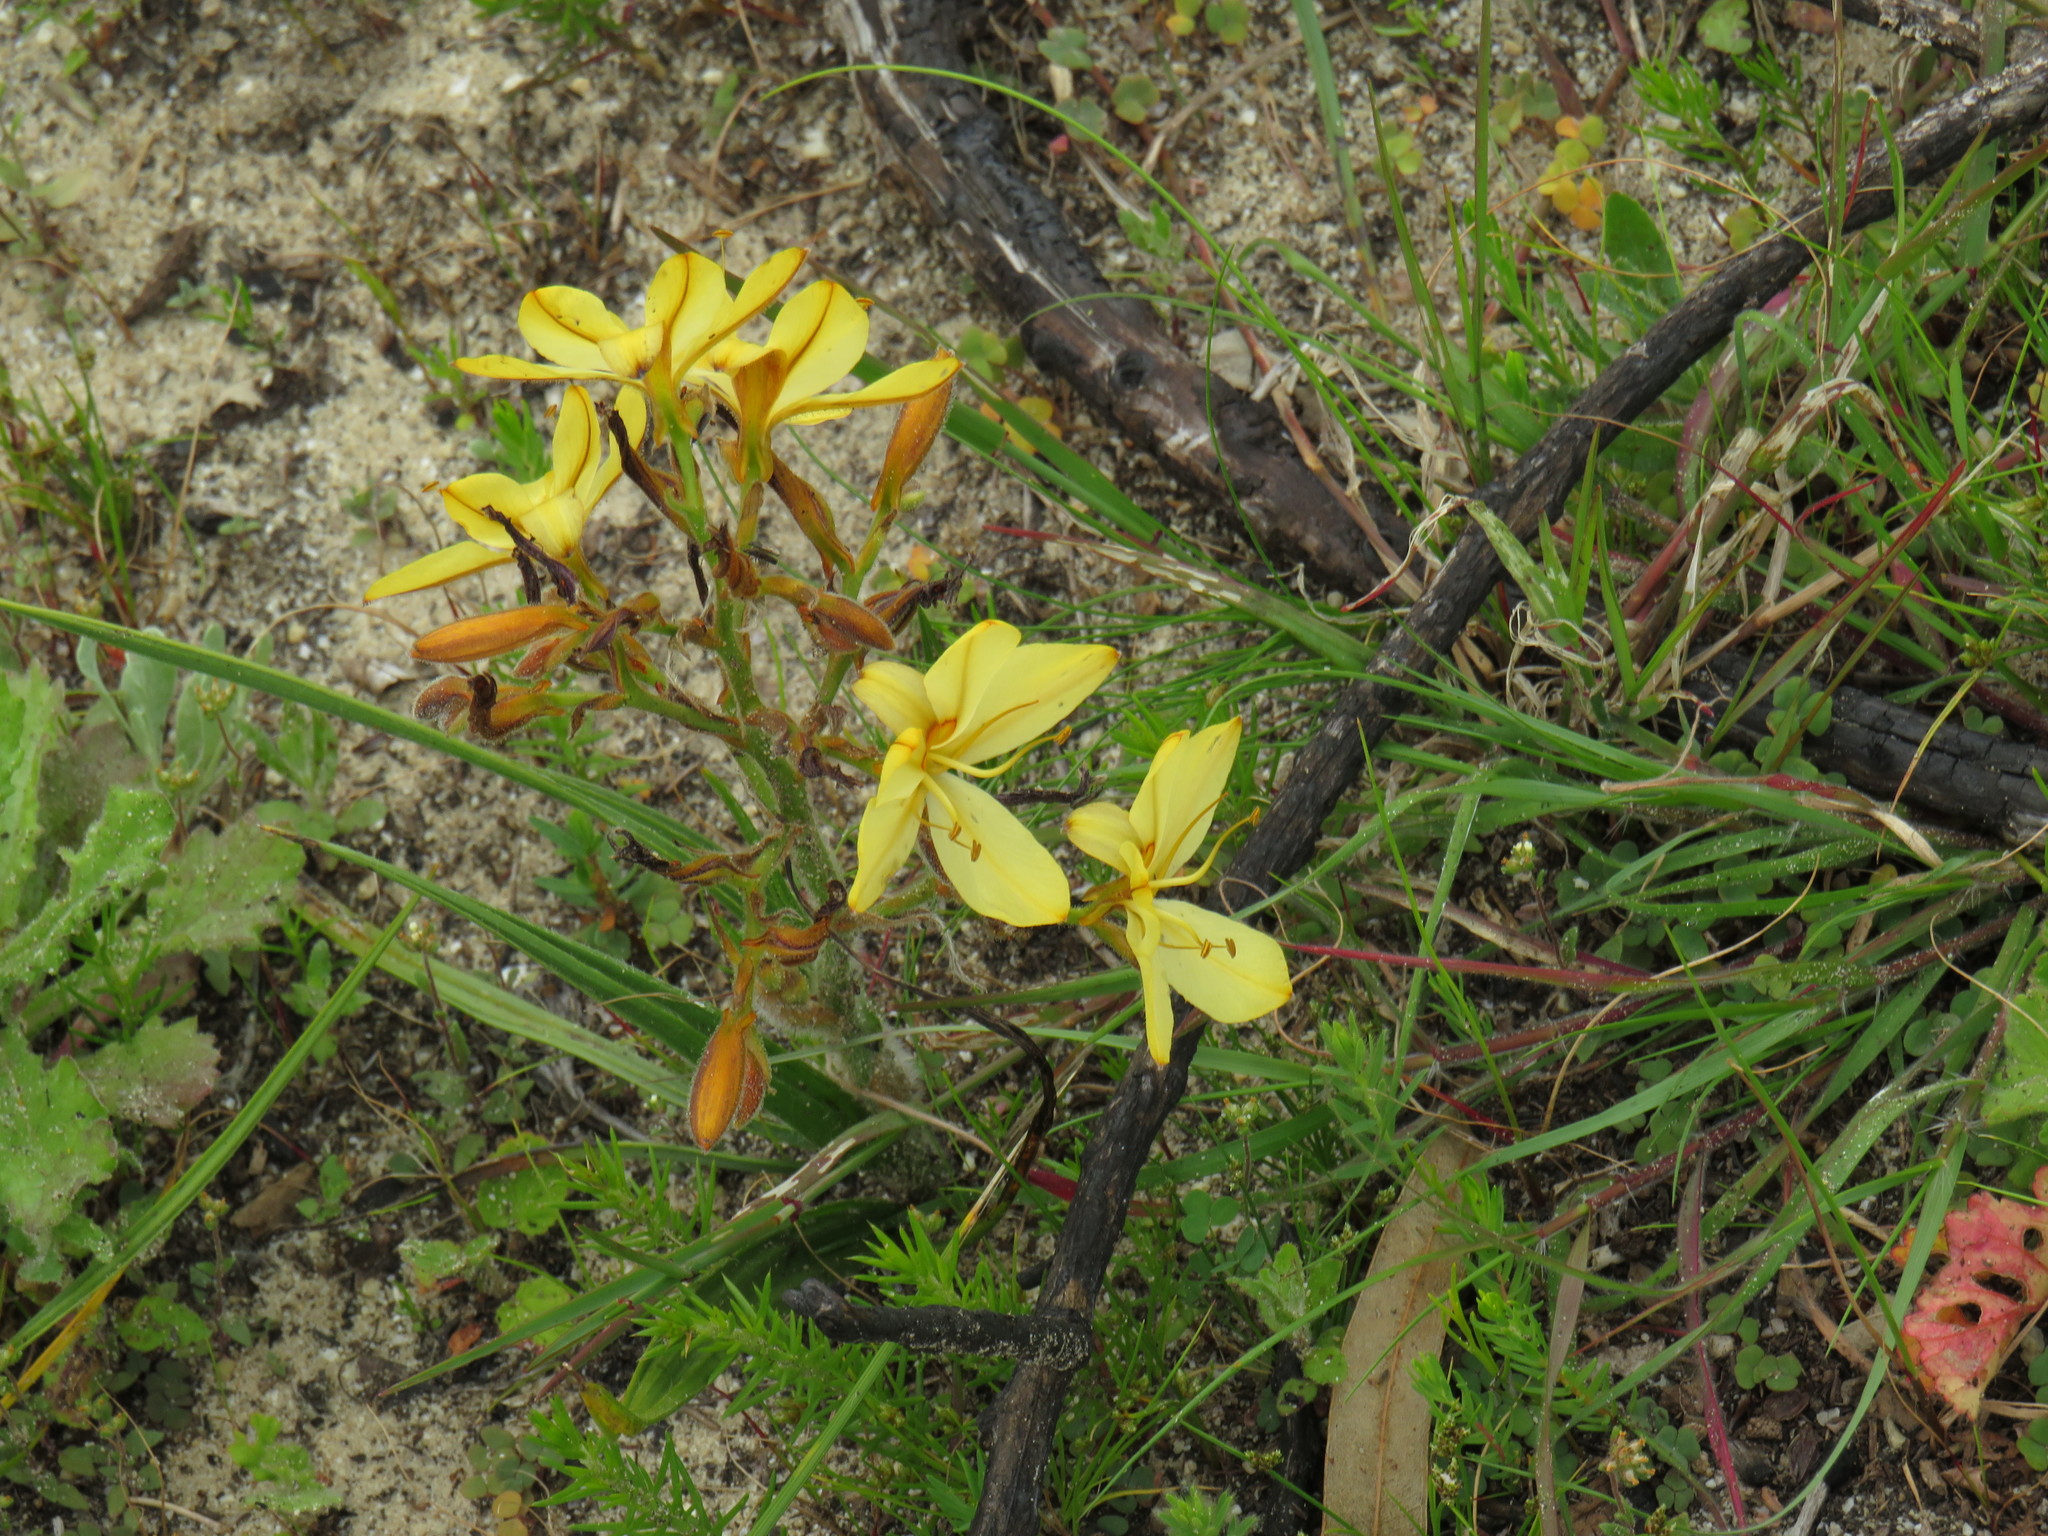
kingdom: Plantae
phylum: Tracheophyta
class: Liliopsida
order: Commelinales
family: Haemodoraceae
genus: Wachendorfia
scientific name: Wachendorfia paniculata
